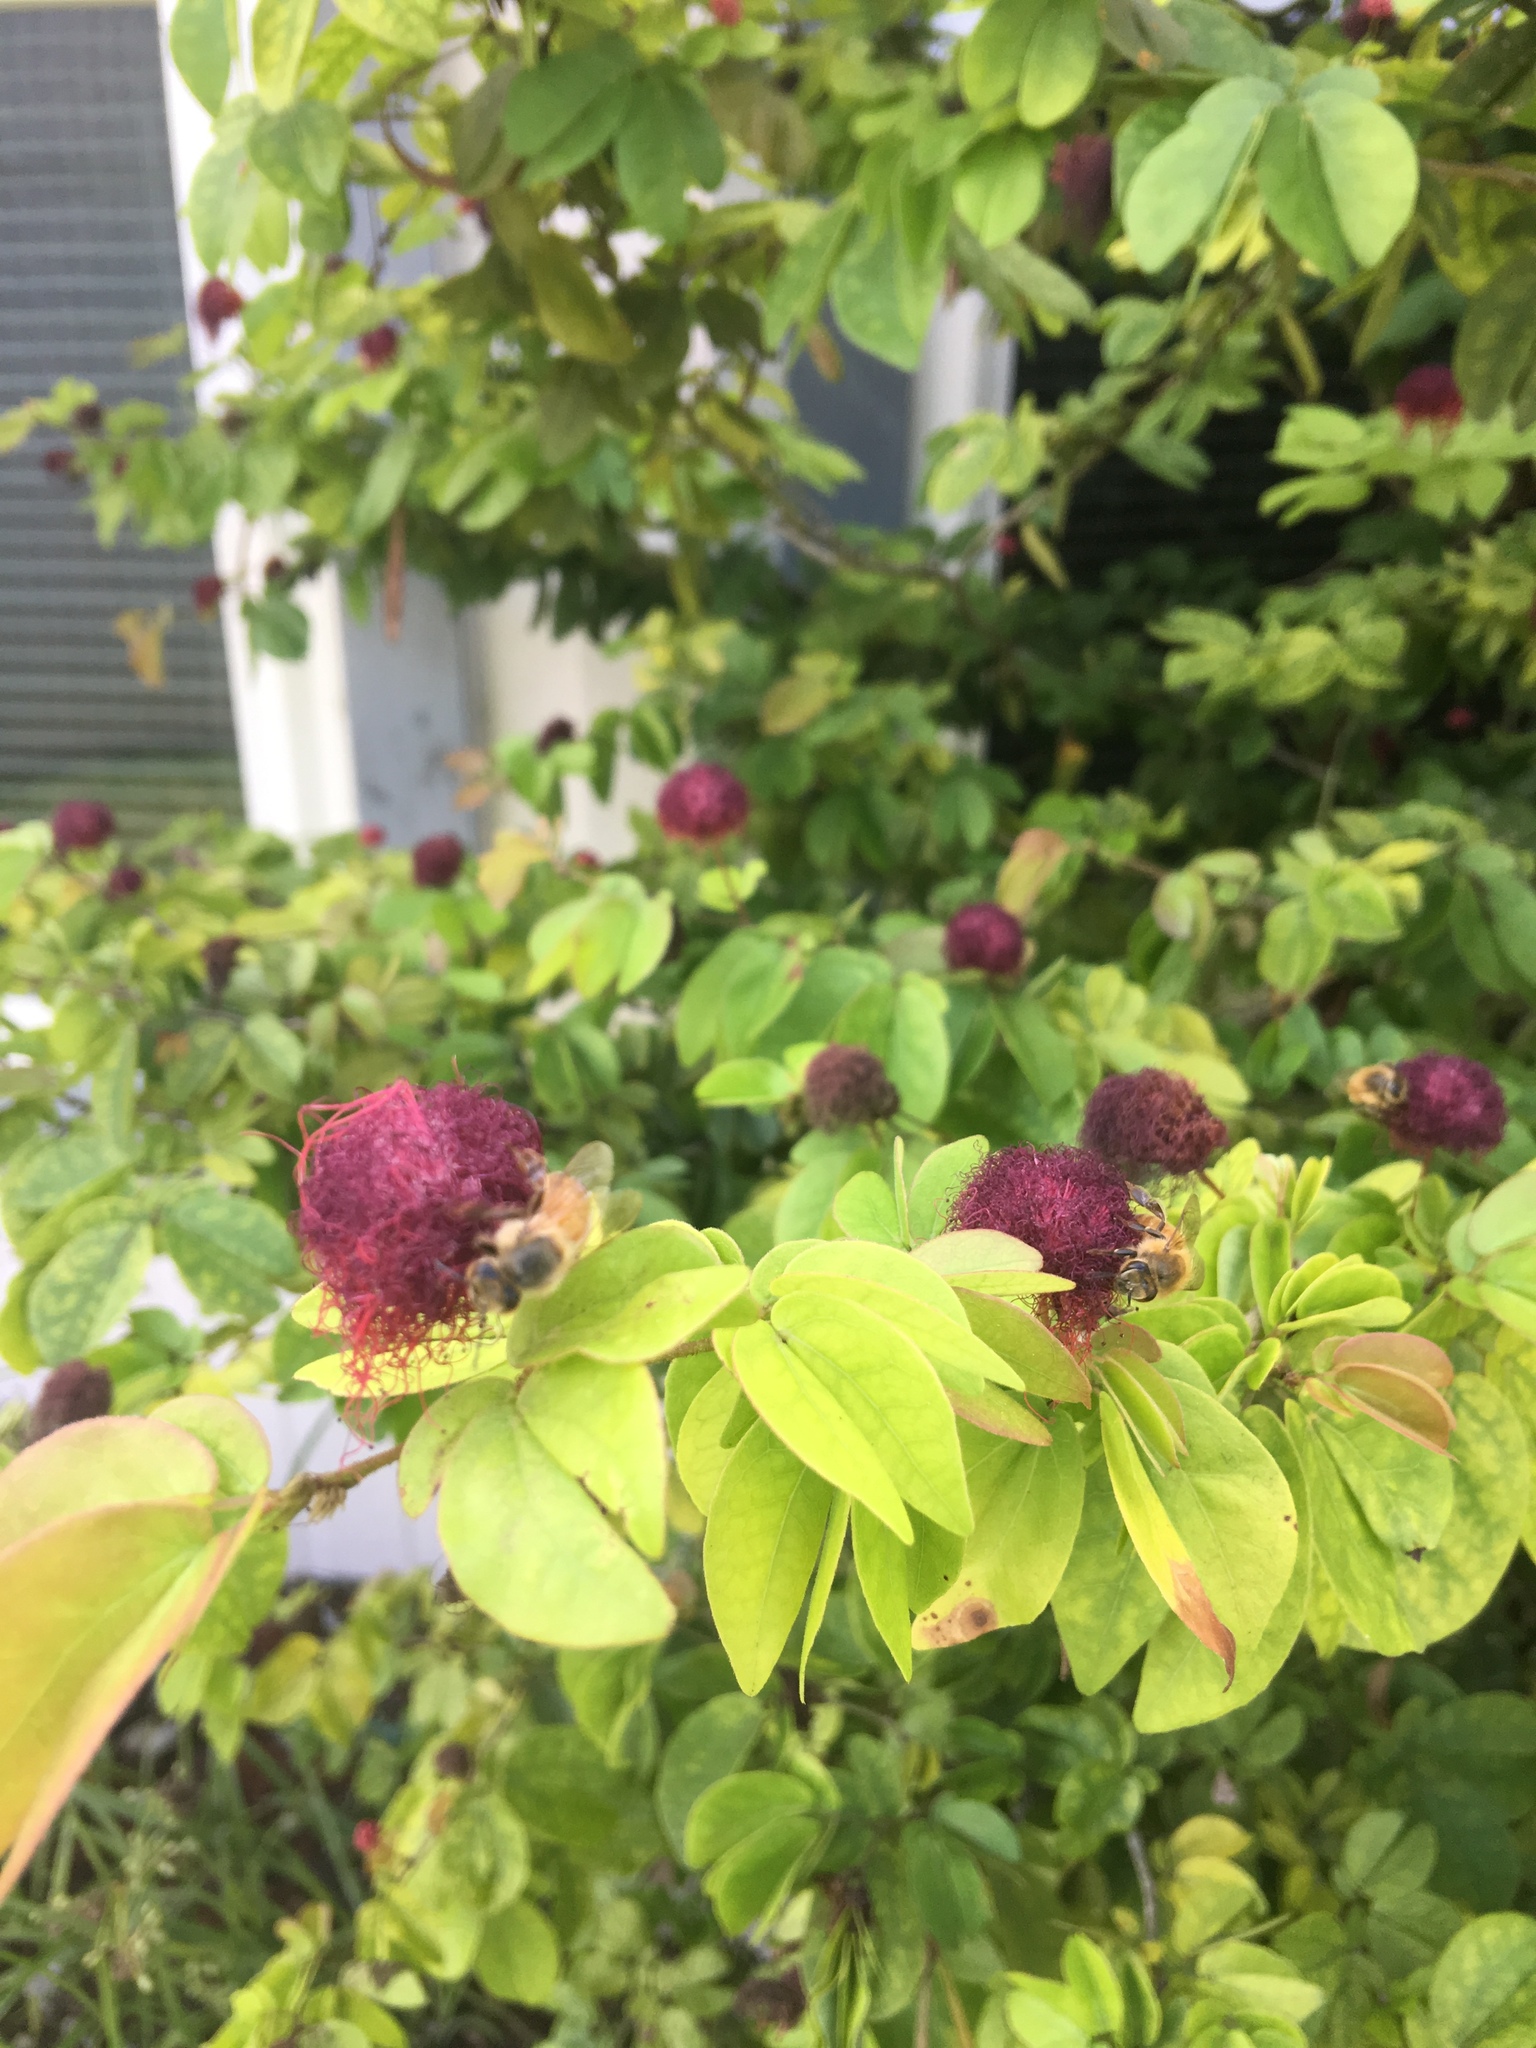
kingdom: Animalia
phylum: Arthropoda
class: Insecta
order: Hymenoptera
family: Apidae
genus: Apis
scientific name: Apis mellifera
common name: Honey bee
